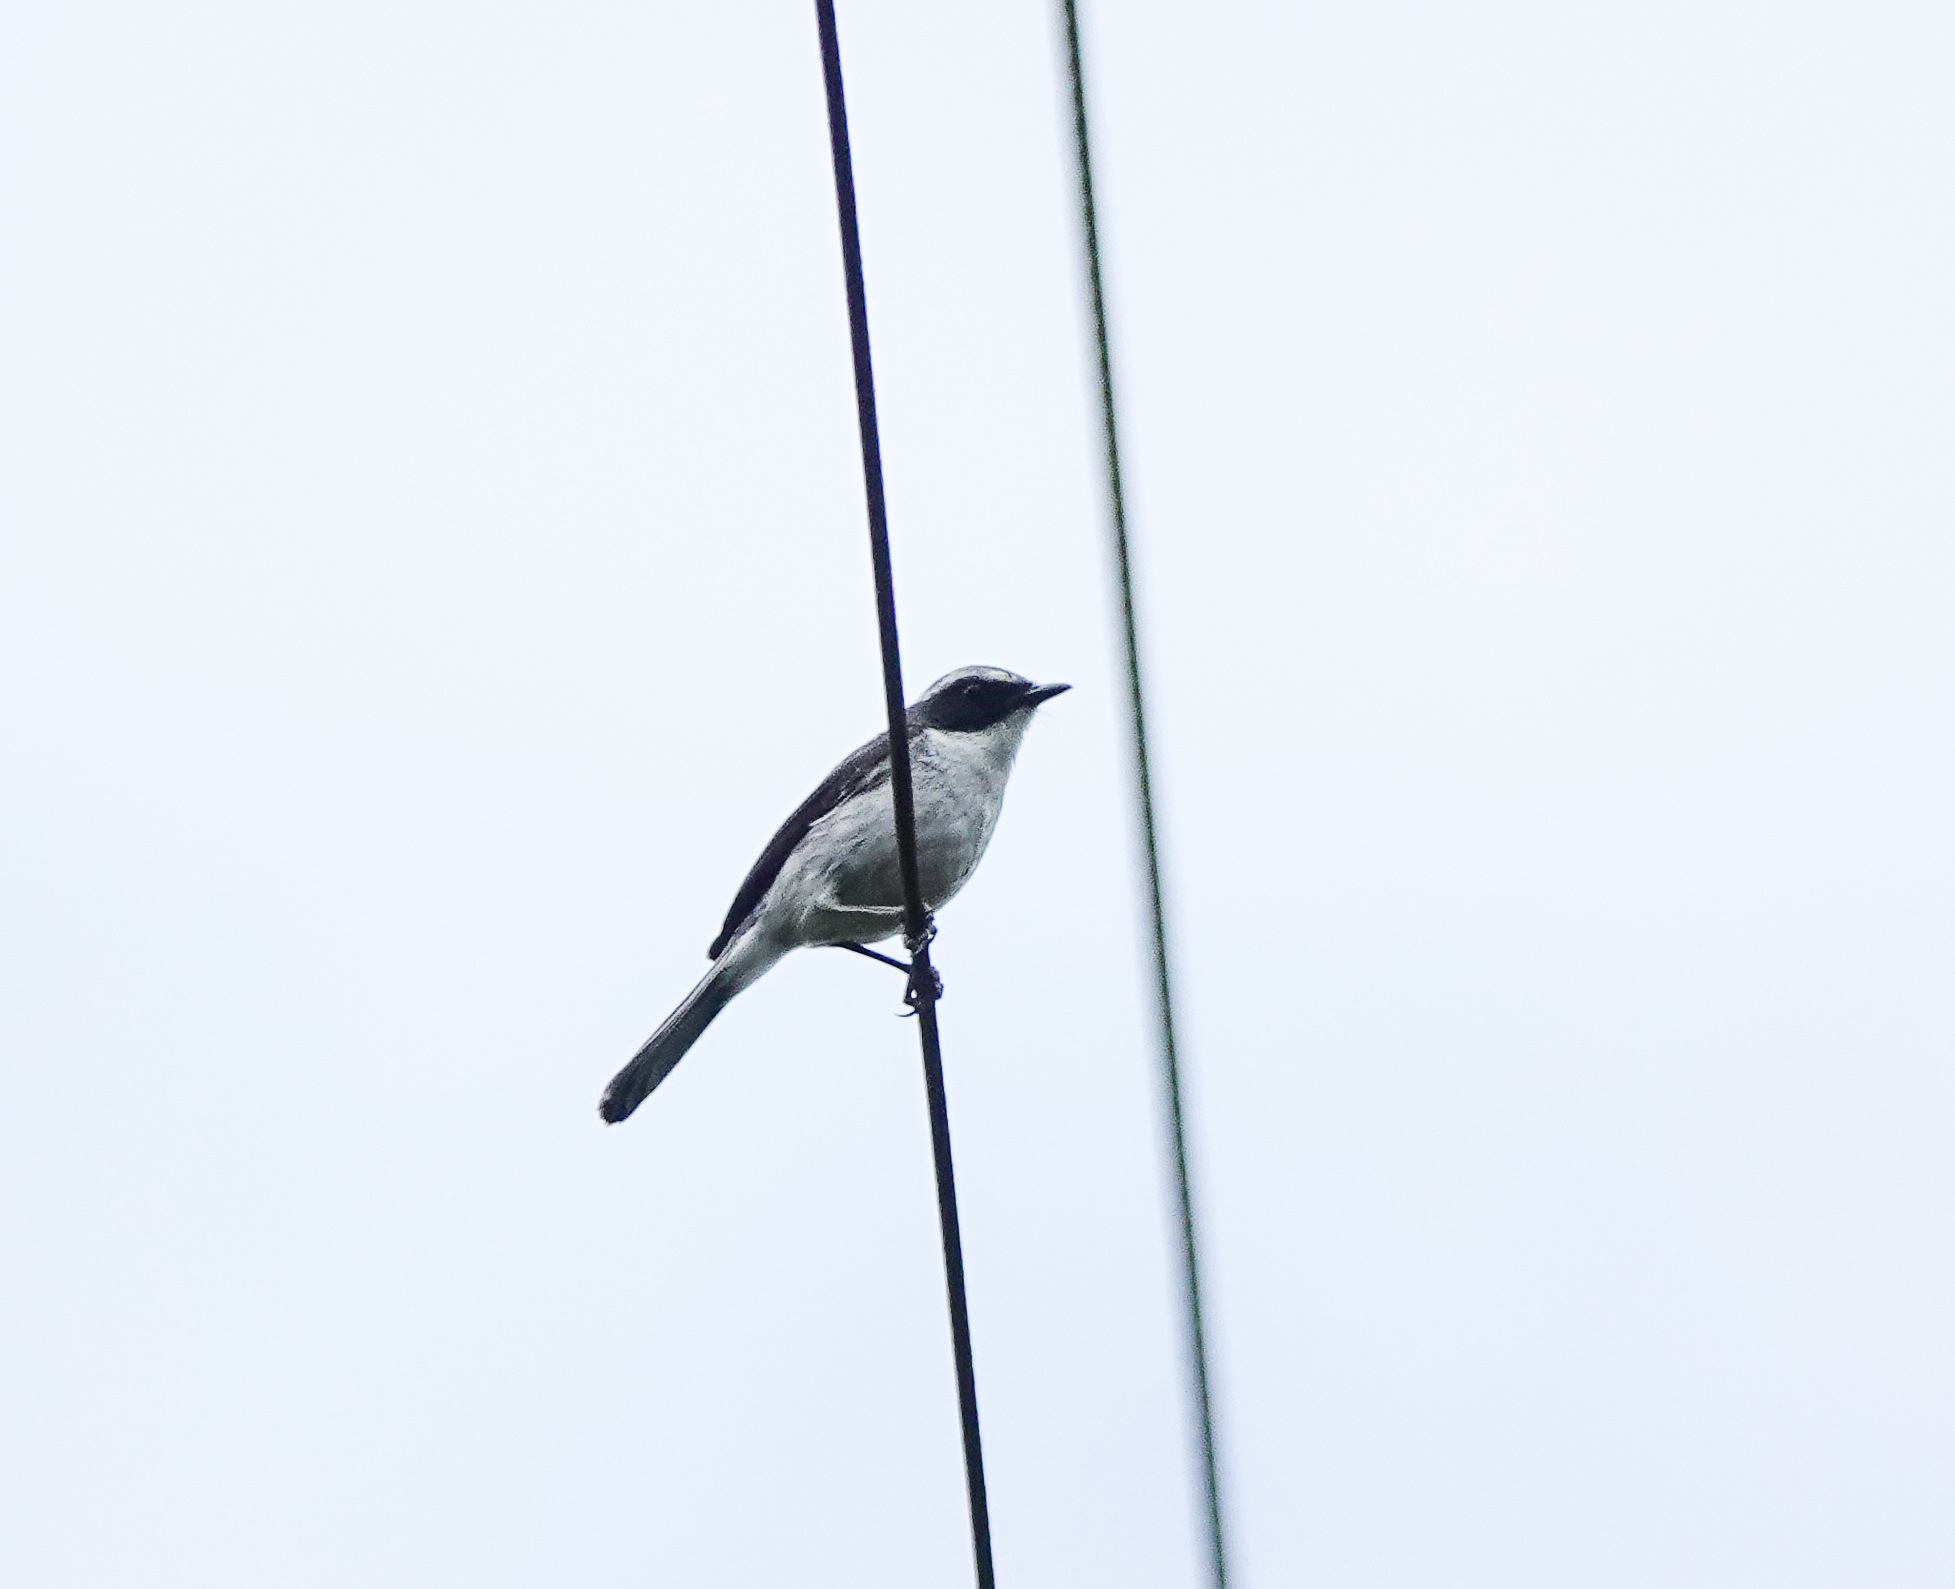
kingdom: Animalia
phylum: Chordata
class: Aves
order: Passeriformes
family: Muscicapidae
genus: Saxicola
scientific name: Saxicola ferreus
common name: Grey bush chat
